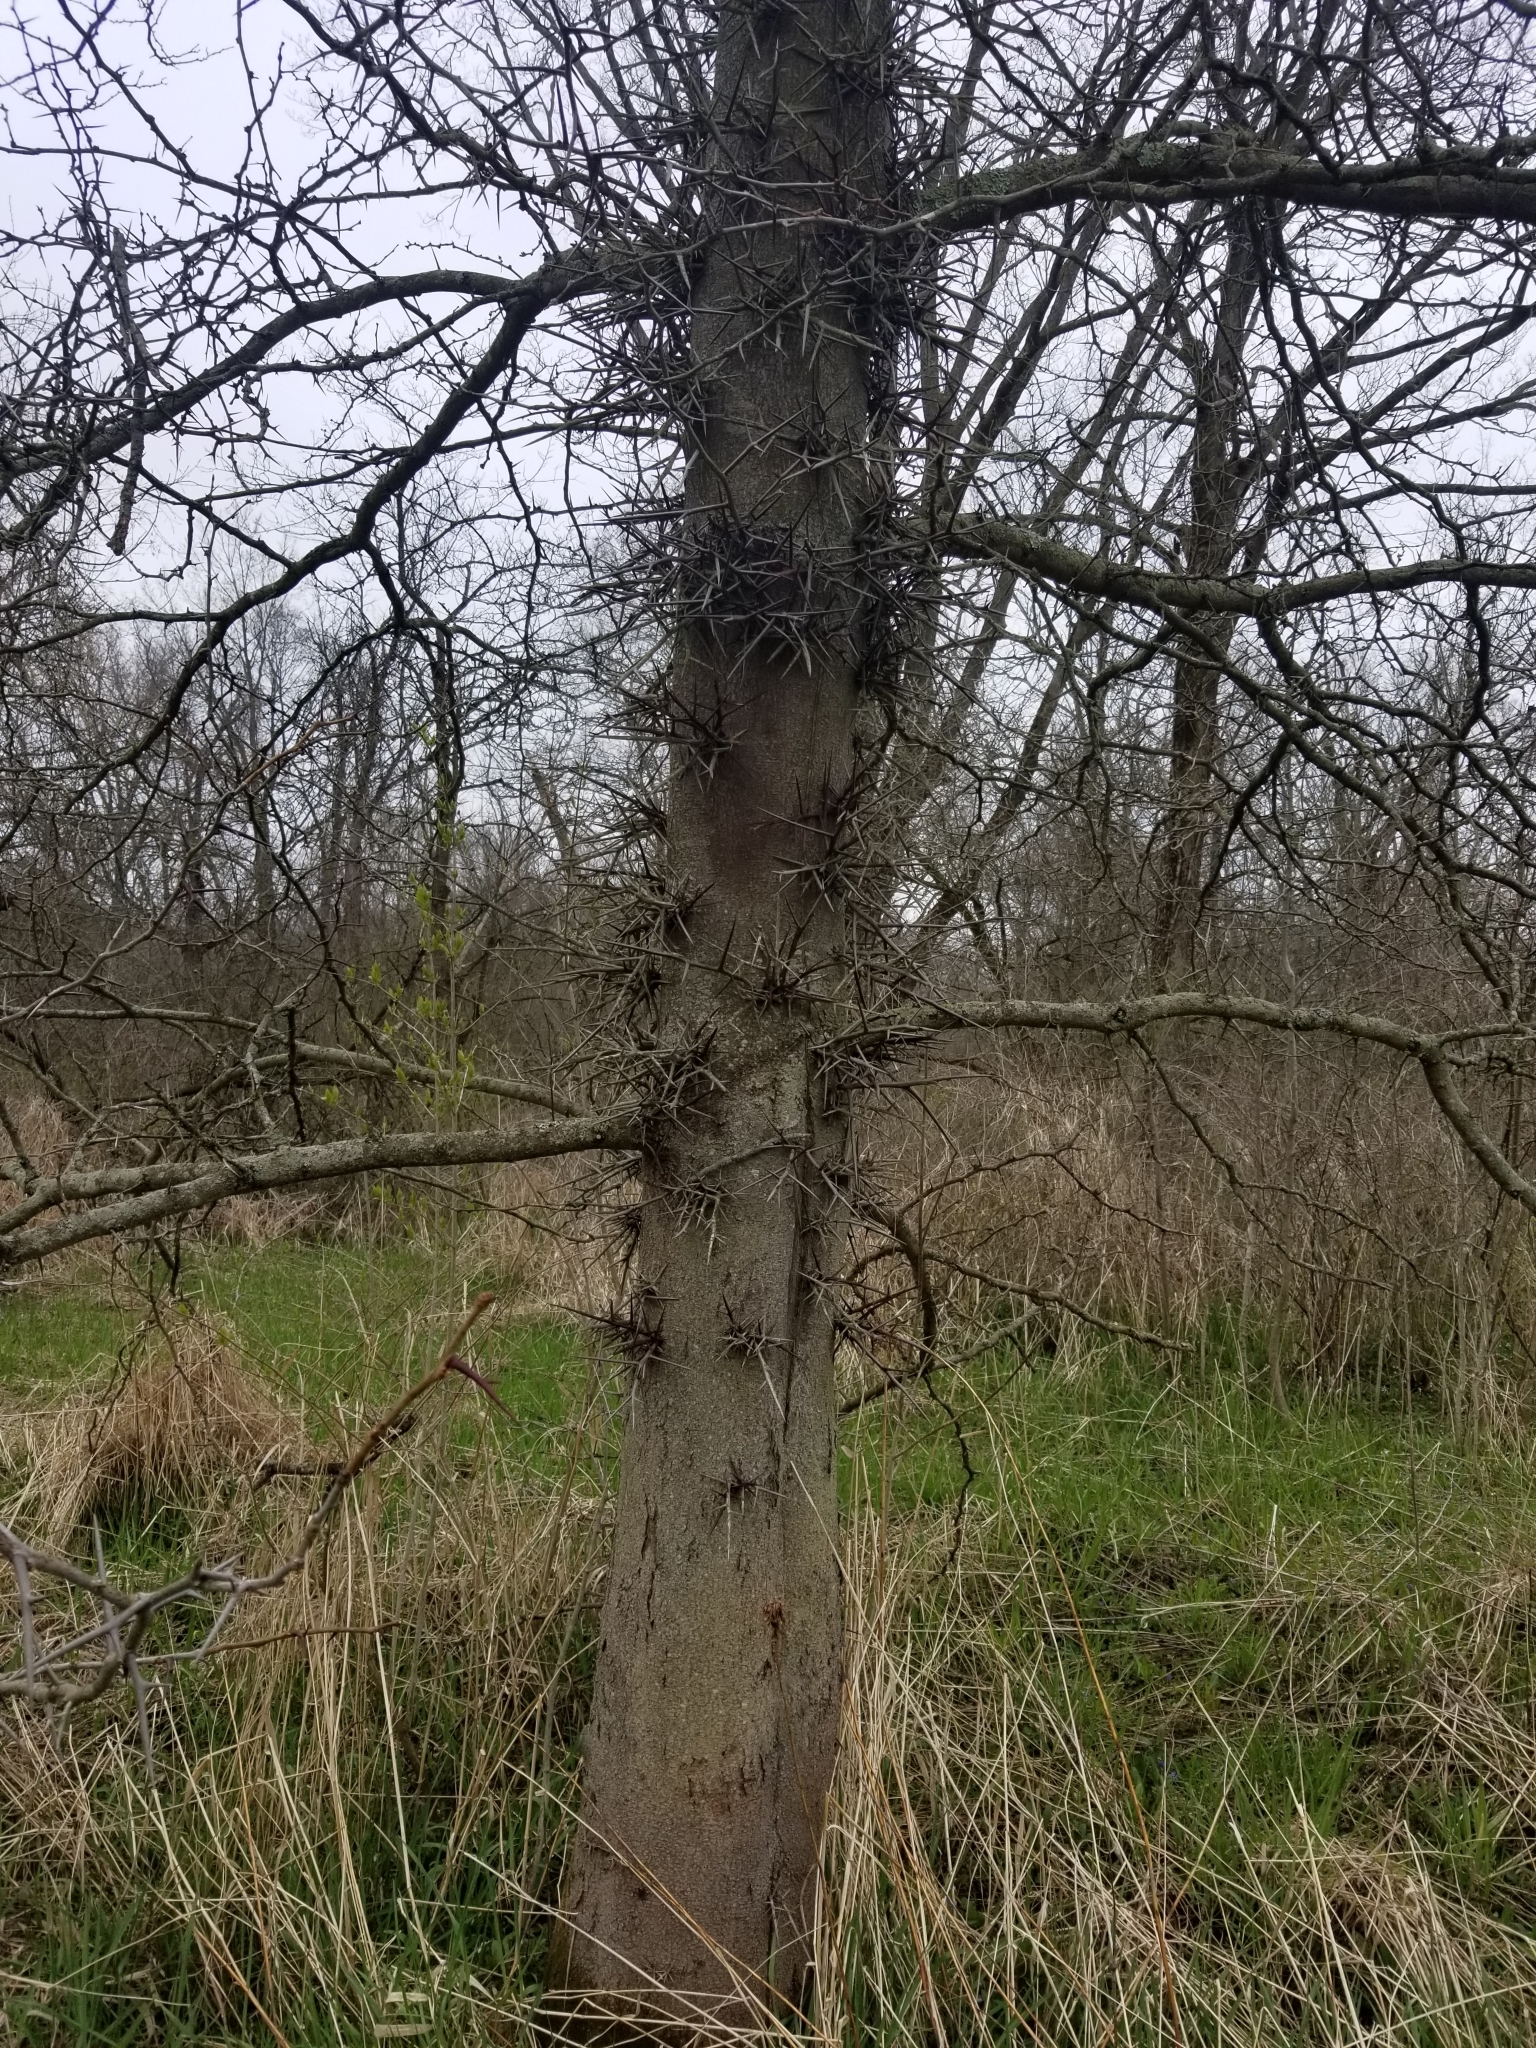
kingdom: Plantae
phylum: Tracheophyta
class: Magnoliopsida
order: Fabales
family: Fabaceae
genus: Gleditsia
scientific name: Gleditsia triacanthos
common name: Common honeylocust
